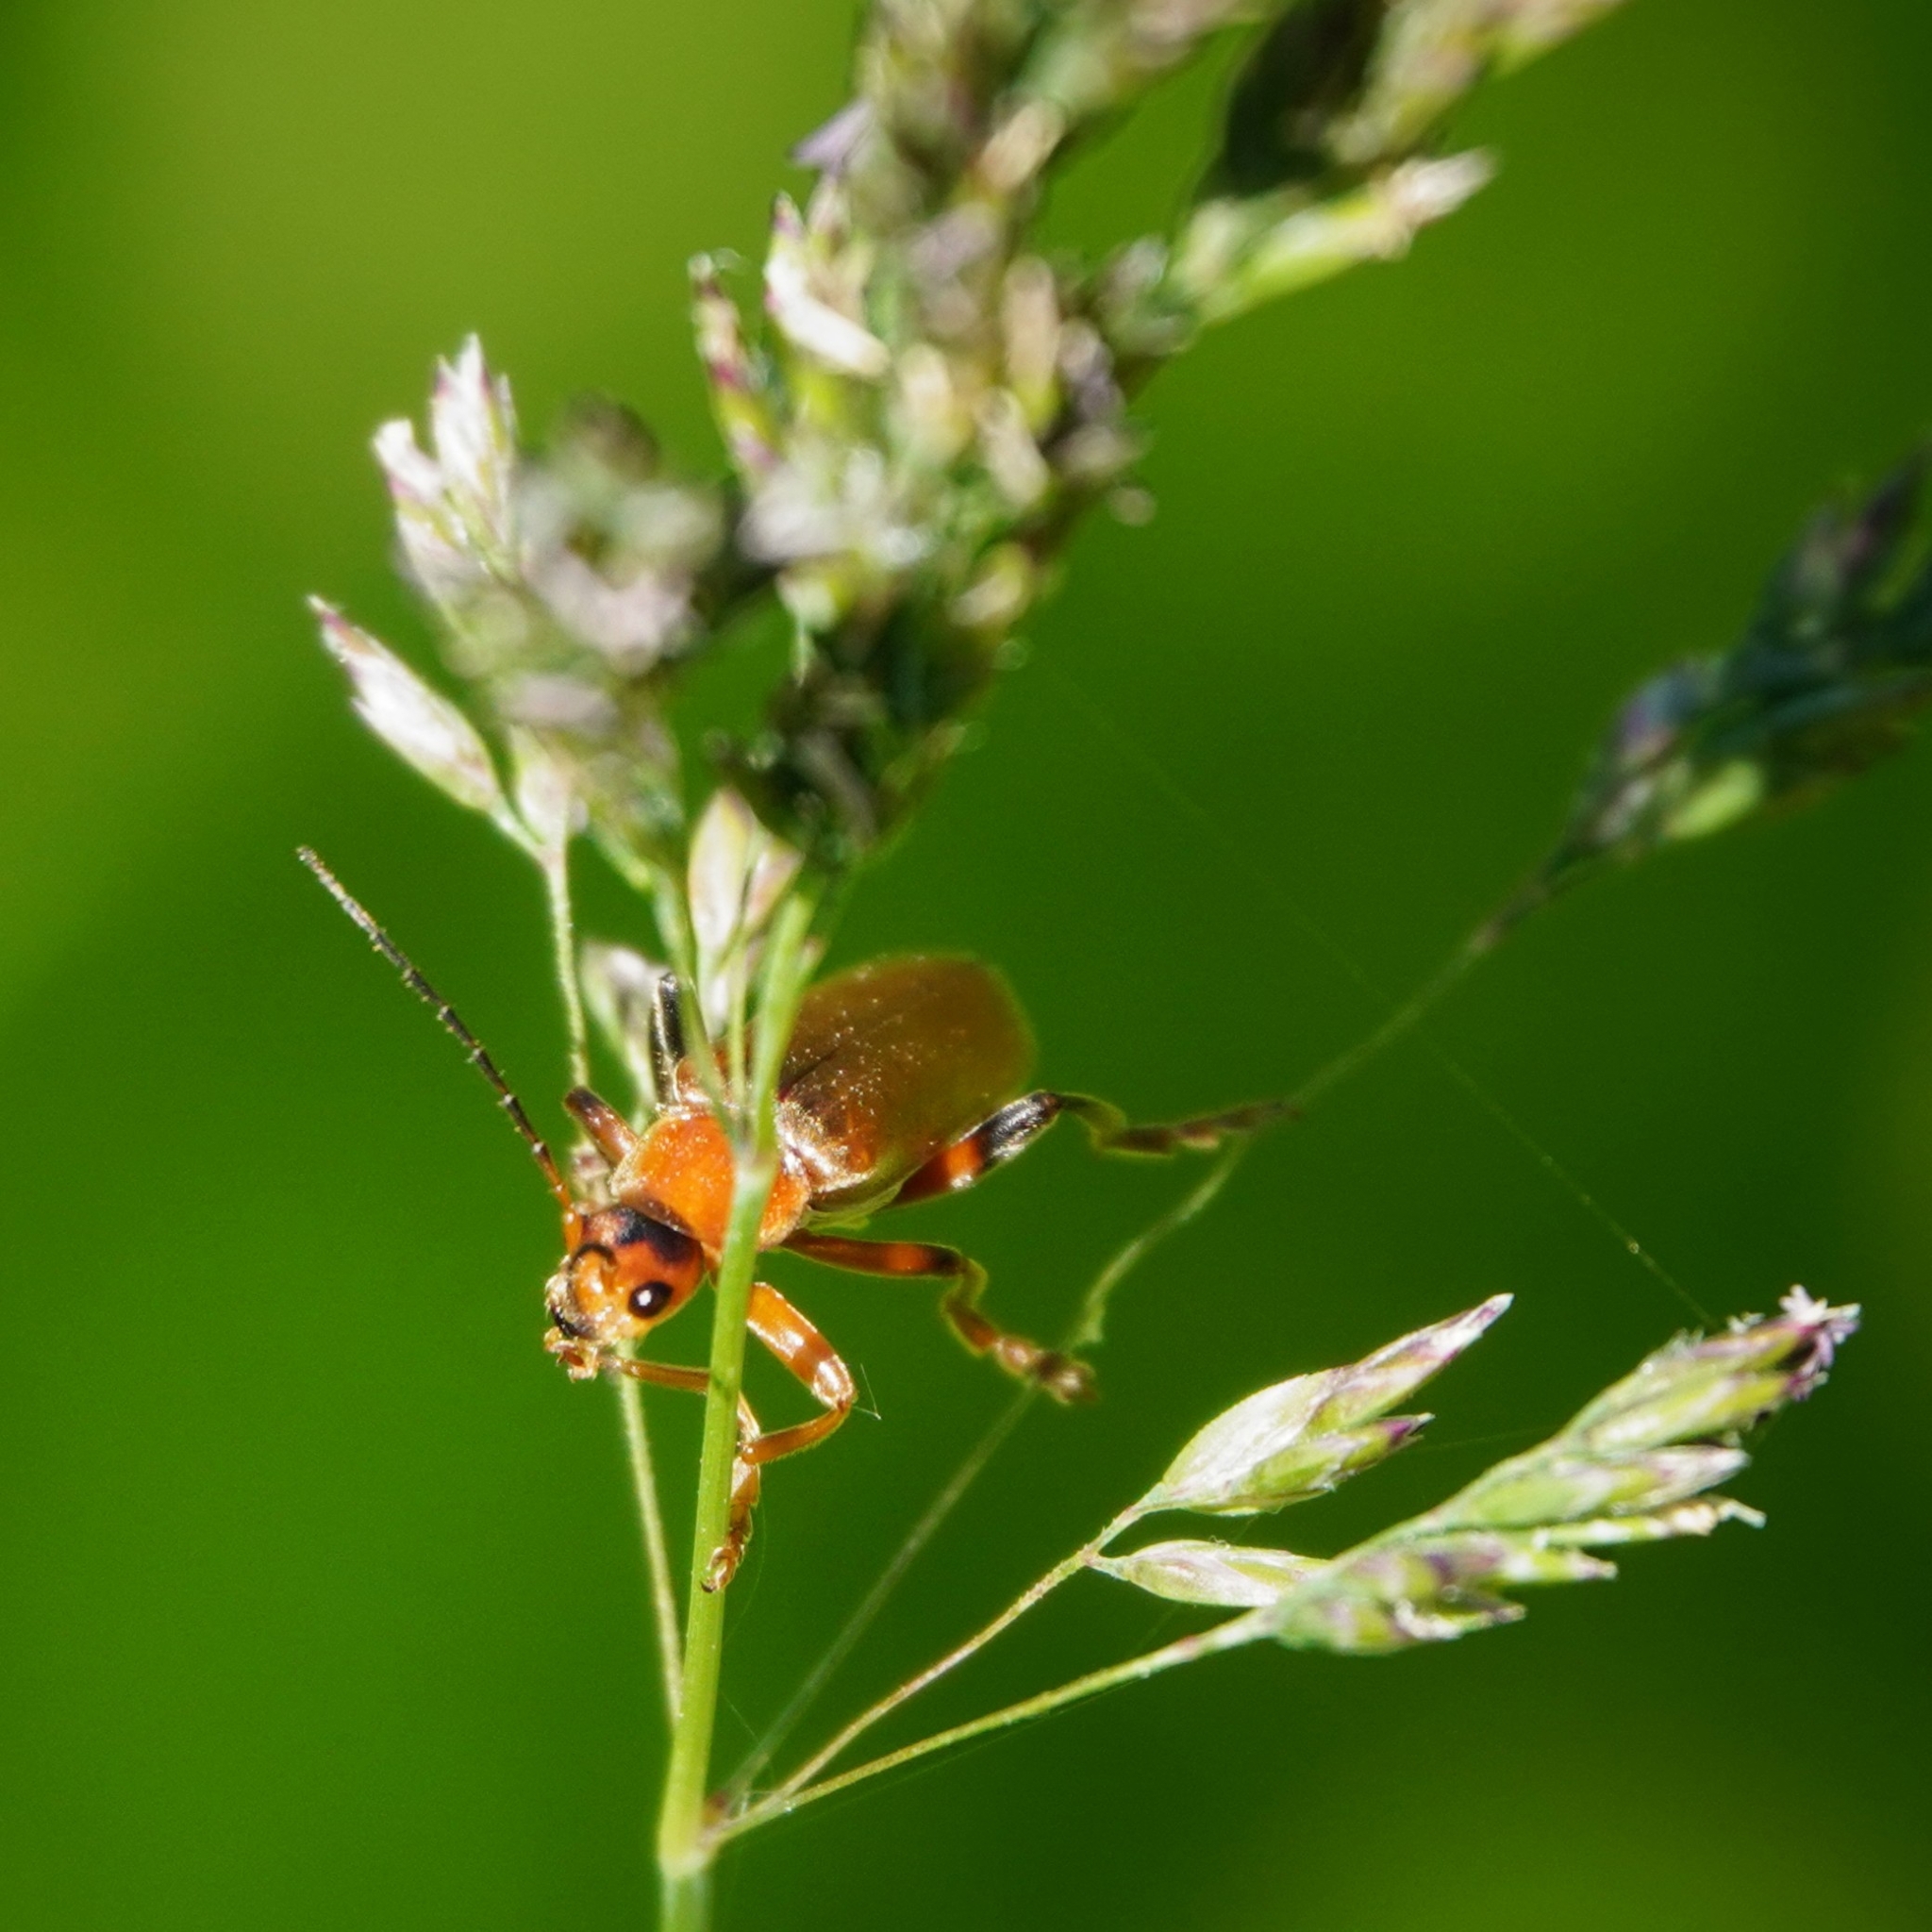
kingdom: Animalia
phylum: Arthropoda
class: Insecta
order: Coleoptera
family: Cantharidae
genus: Cantharis
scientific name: Cantharis livida
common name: Livid soldier beetle
